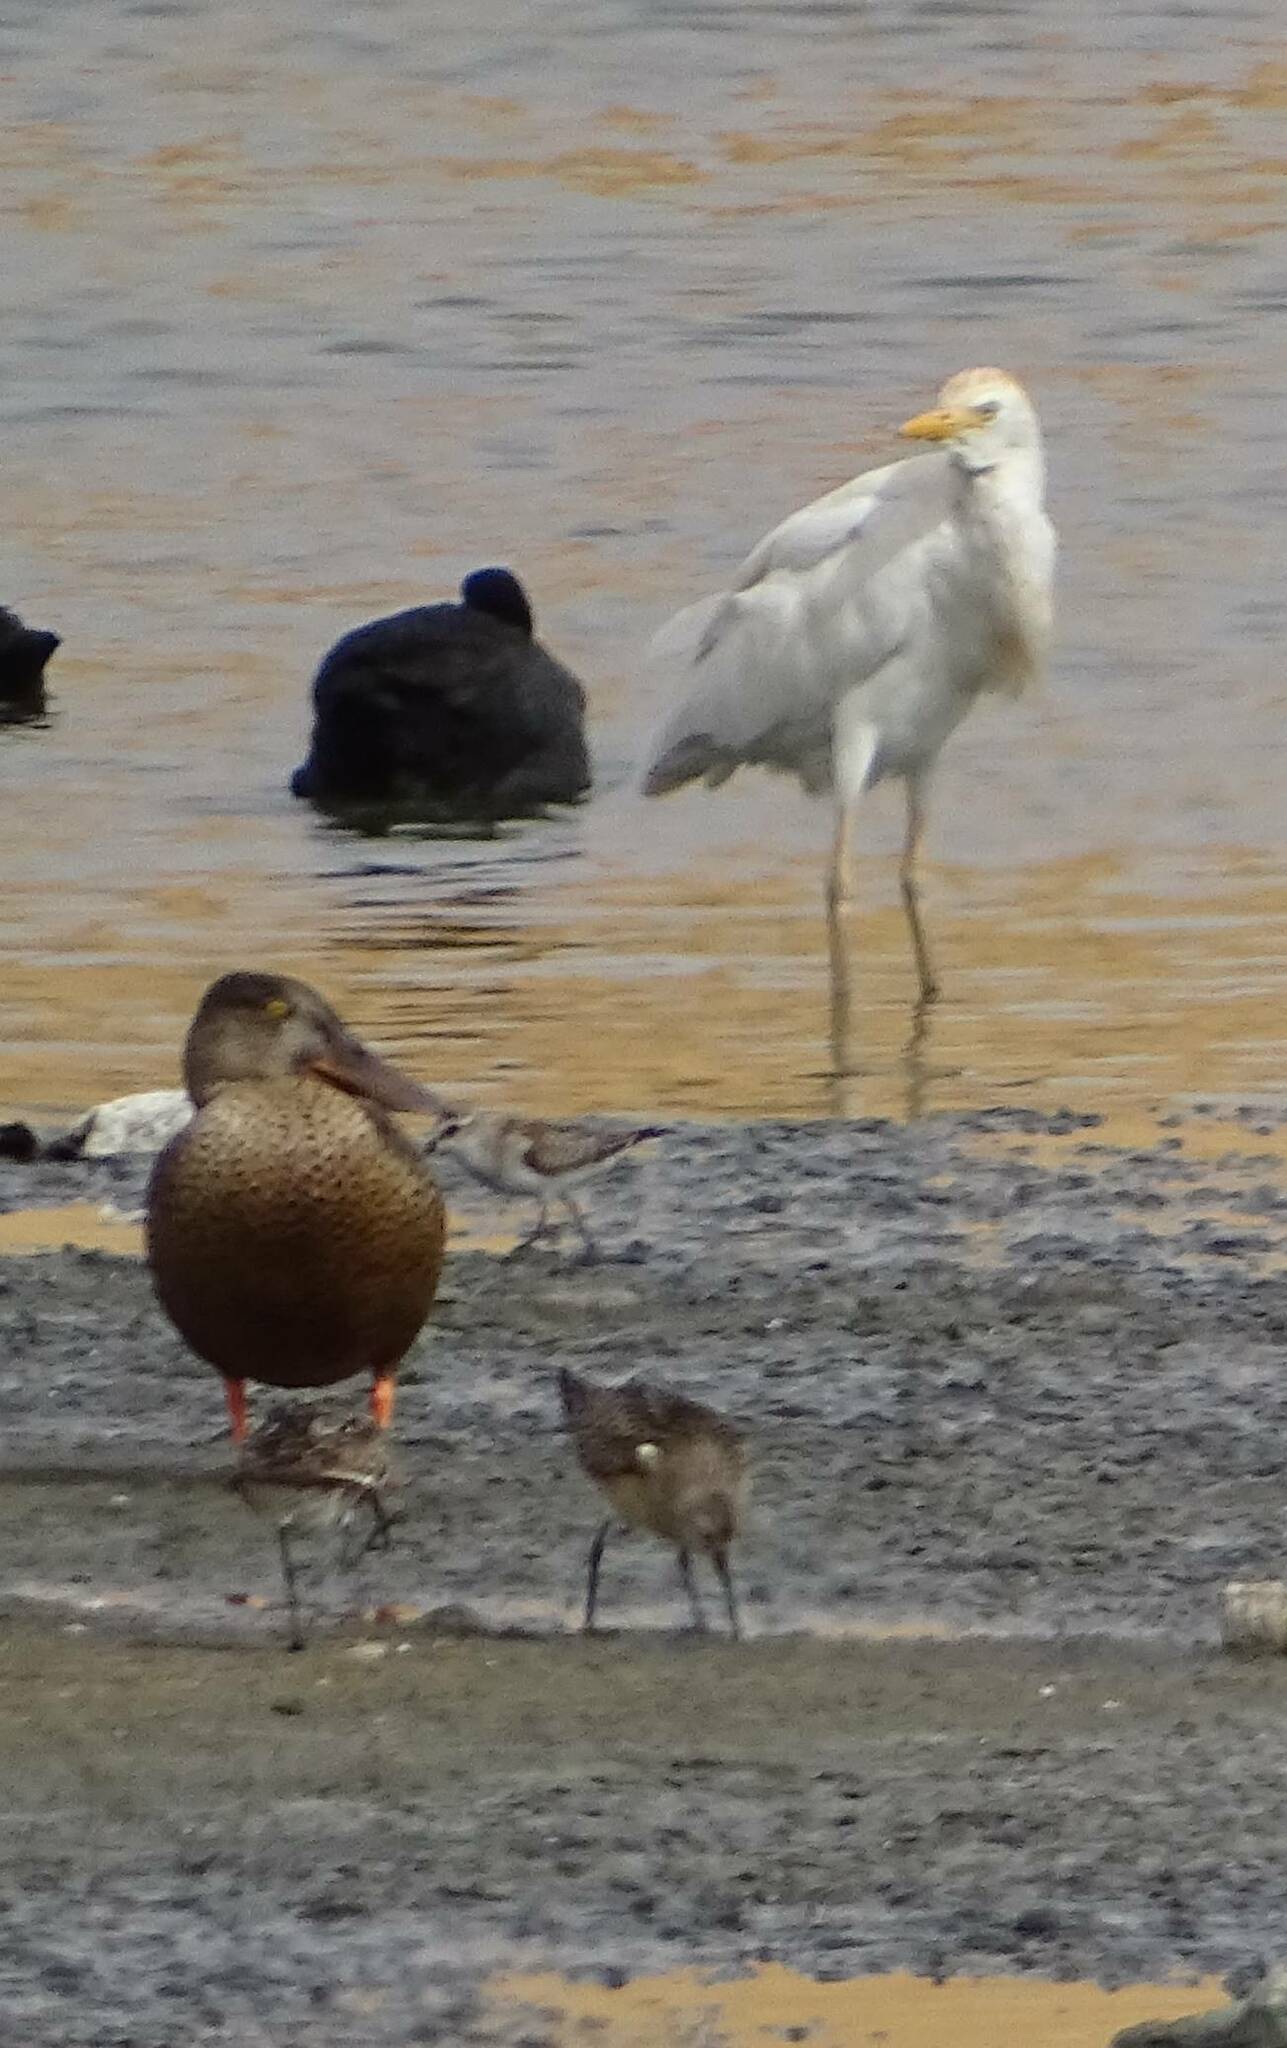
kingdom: Animalia
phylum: Chordata
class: Aves
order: Anseriformes
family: Anatidae
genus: Spatula
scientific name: Spatula clypeata
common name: Northern shoveler
